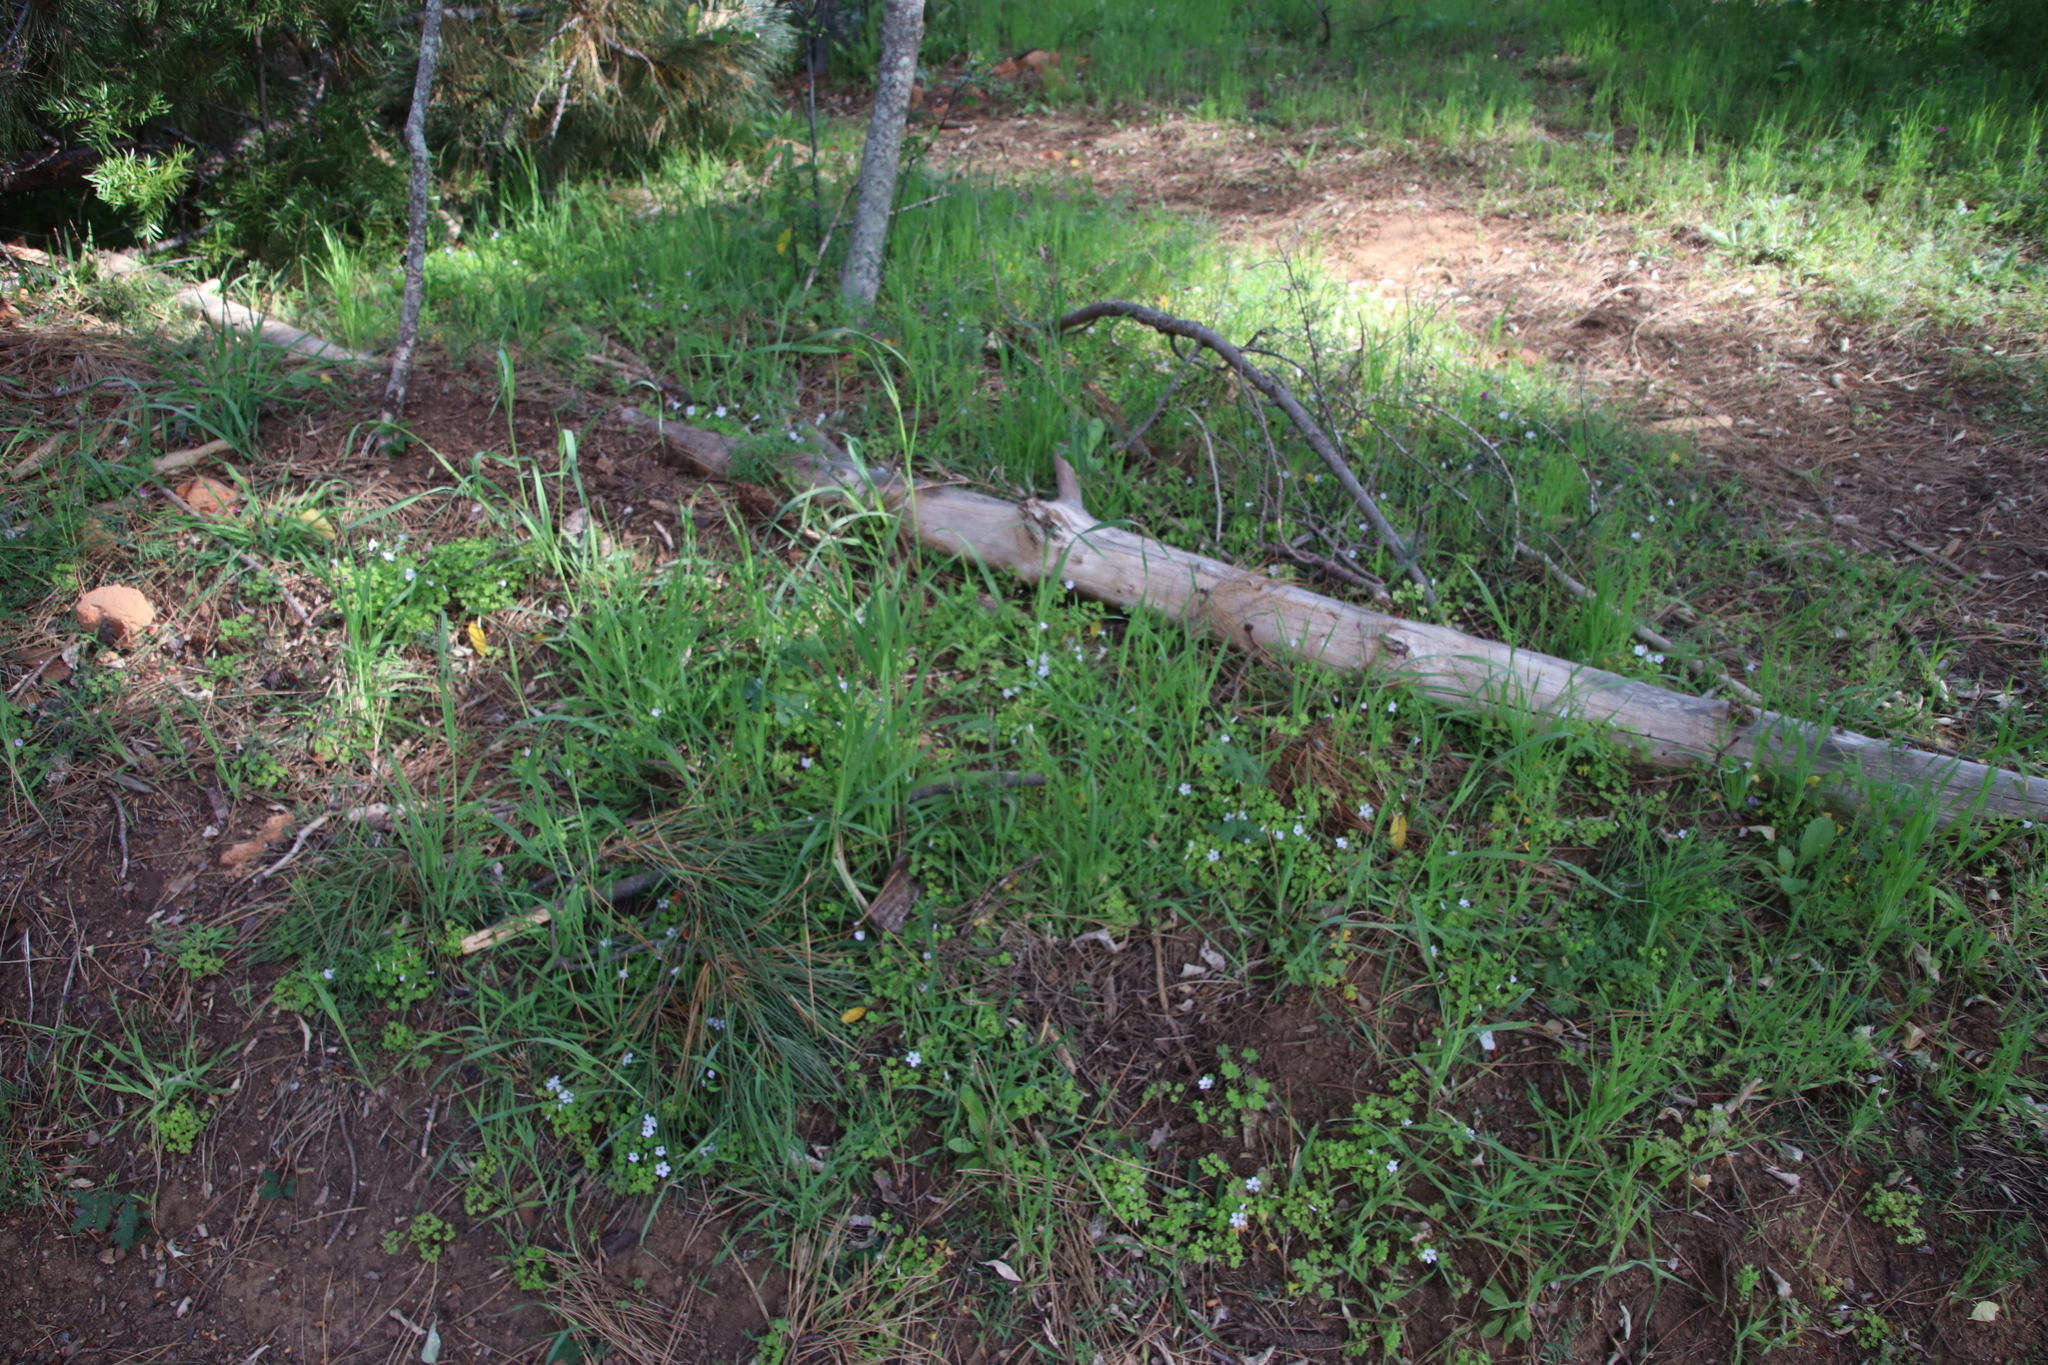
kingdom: Plantae
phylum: Tracheophyta
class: Magnoliopsida
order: Oxalidales
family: Oxalidaceae
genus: Oxalis
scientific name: Oxalis incarnata
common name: Pale pink-sorrel
